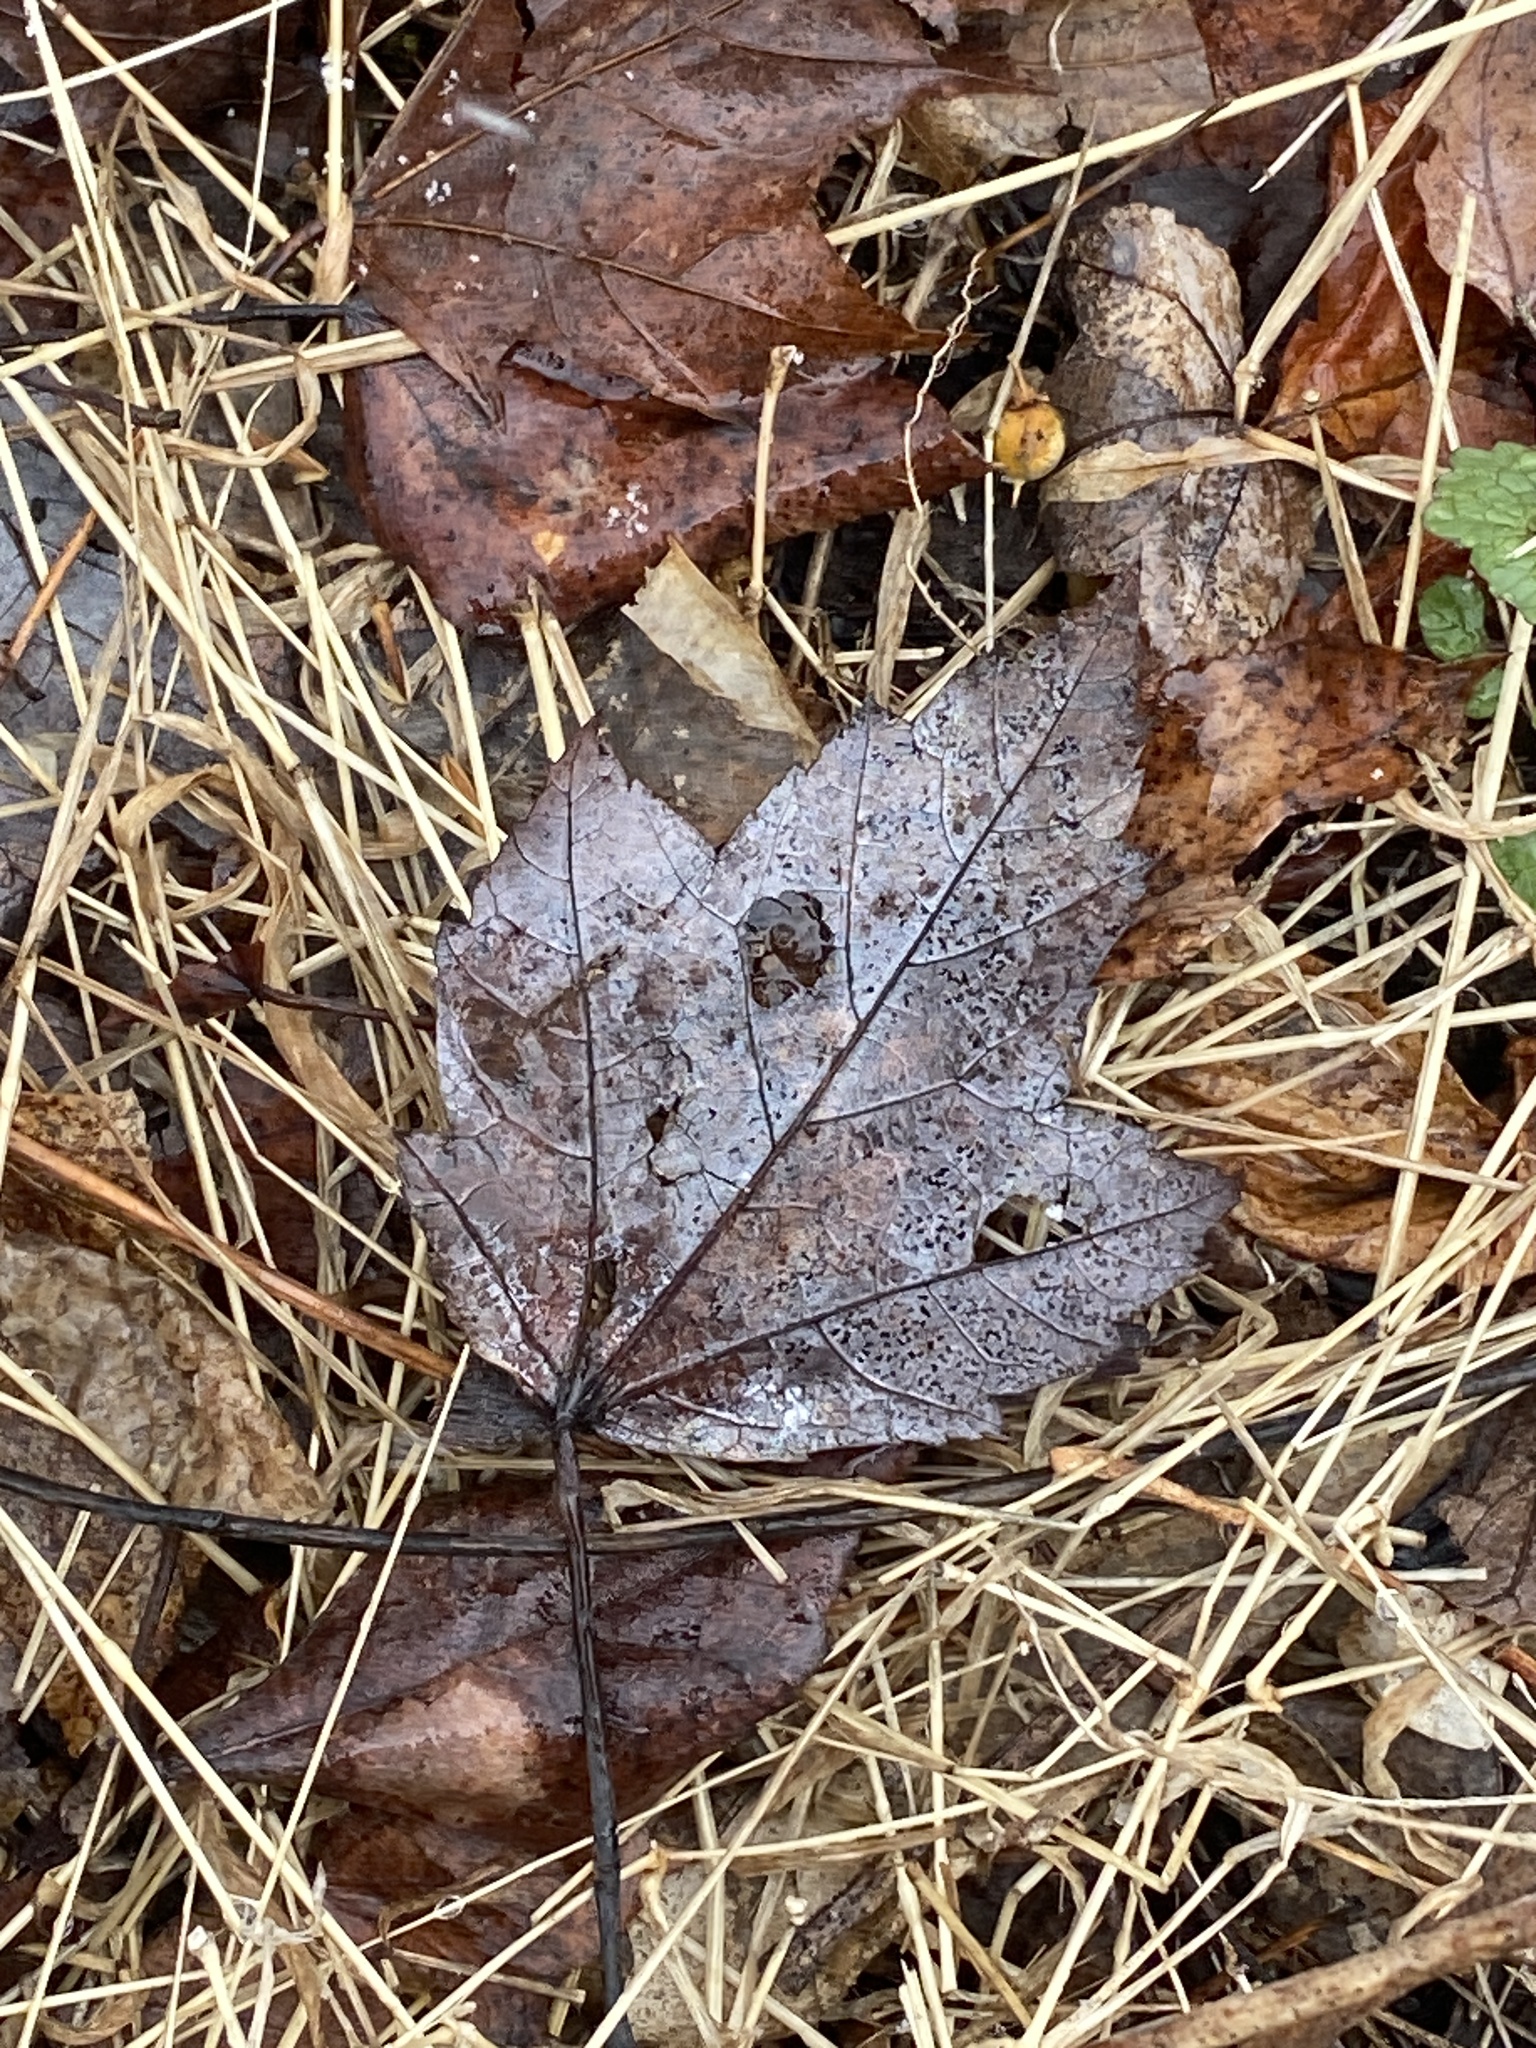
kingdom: Plantae
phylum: Tracheophyta
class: Magnoliopsida
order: Sapindales
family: Sapindaceae
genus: Acer
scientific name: Acer rubrum
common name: Red maple
